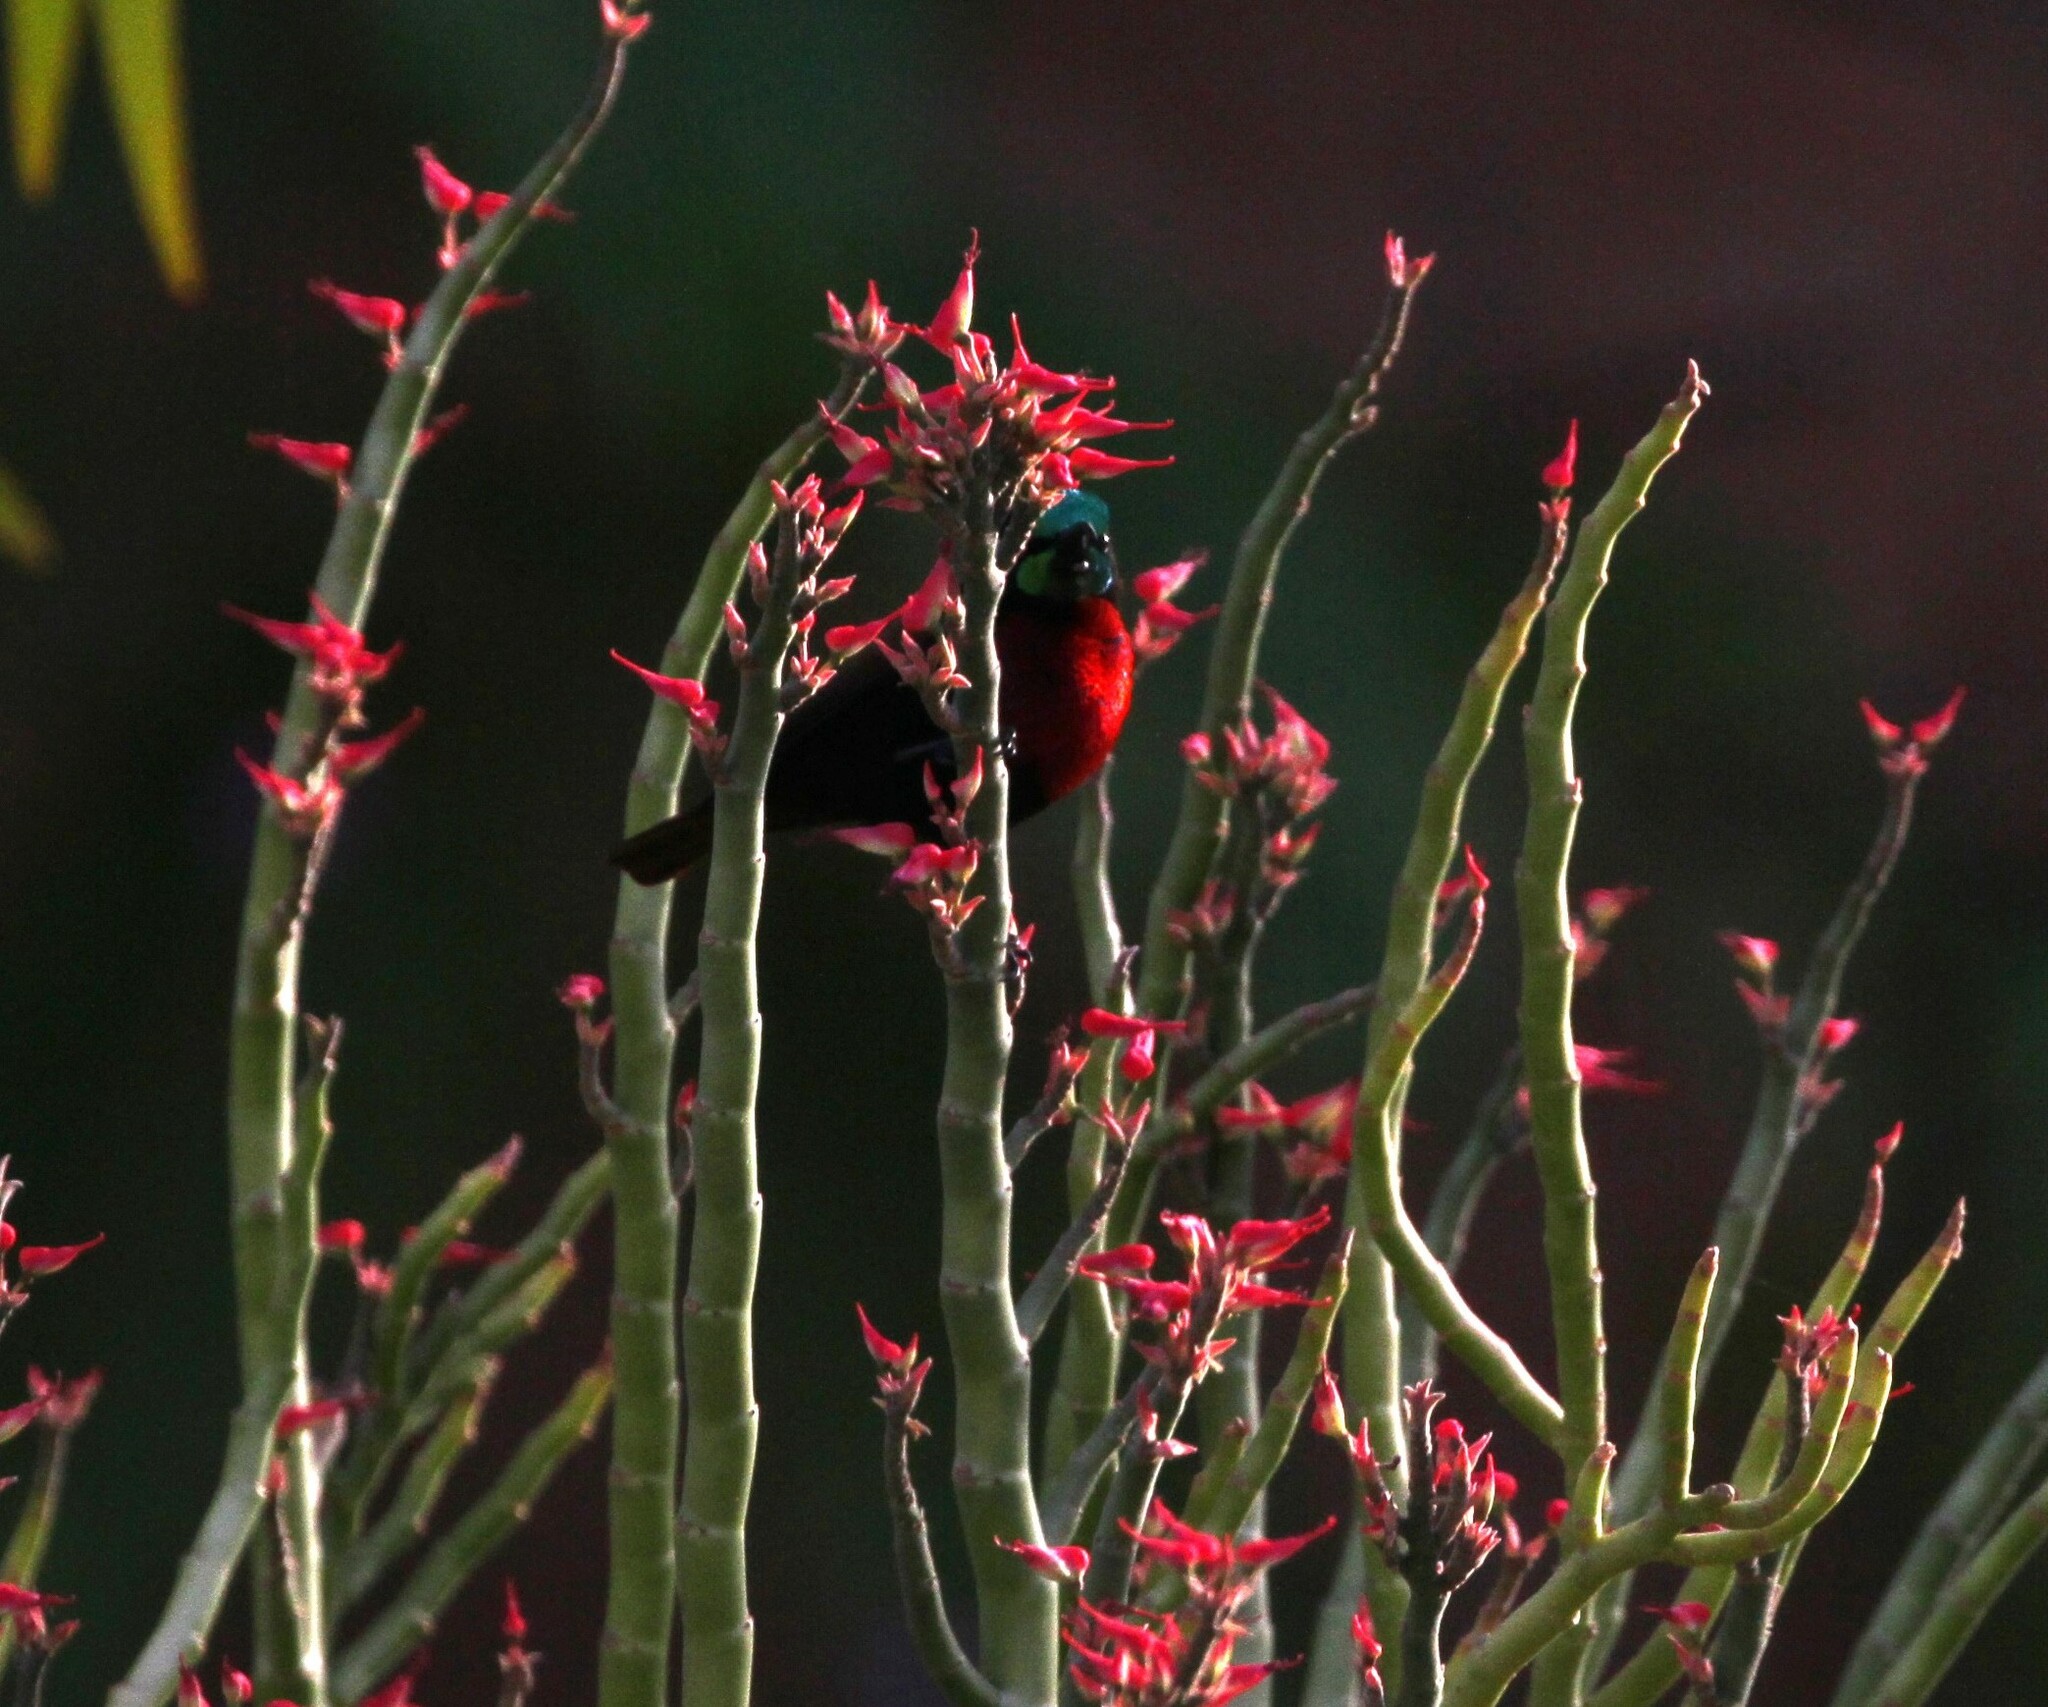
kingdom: Animalia
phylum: Chordata
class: Aves
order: Passeriformes
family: Nectariniidae
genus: Chalcomitra
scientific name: Chalcomitra senegalensis
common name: Scarlet-chested sunbird
